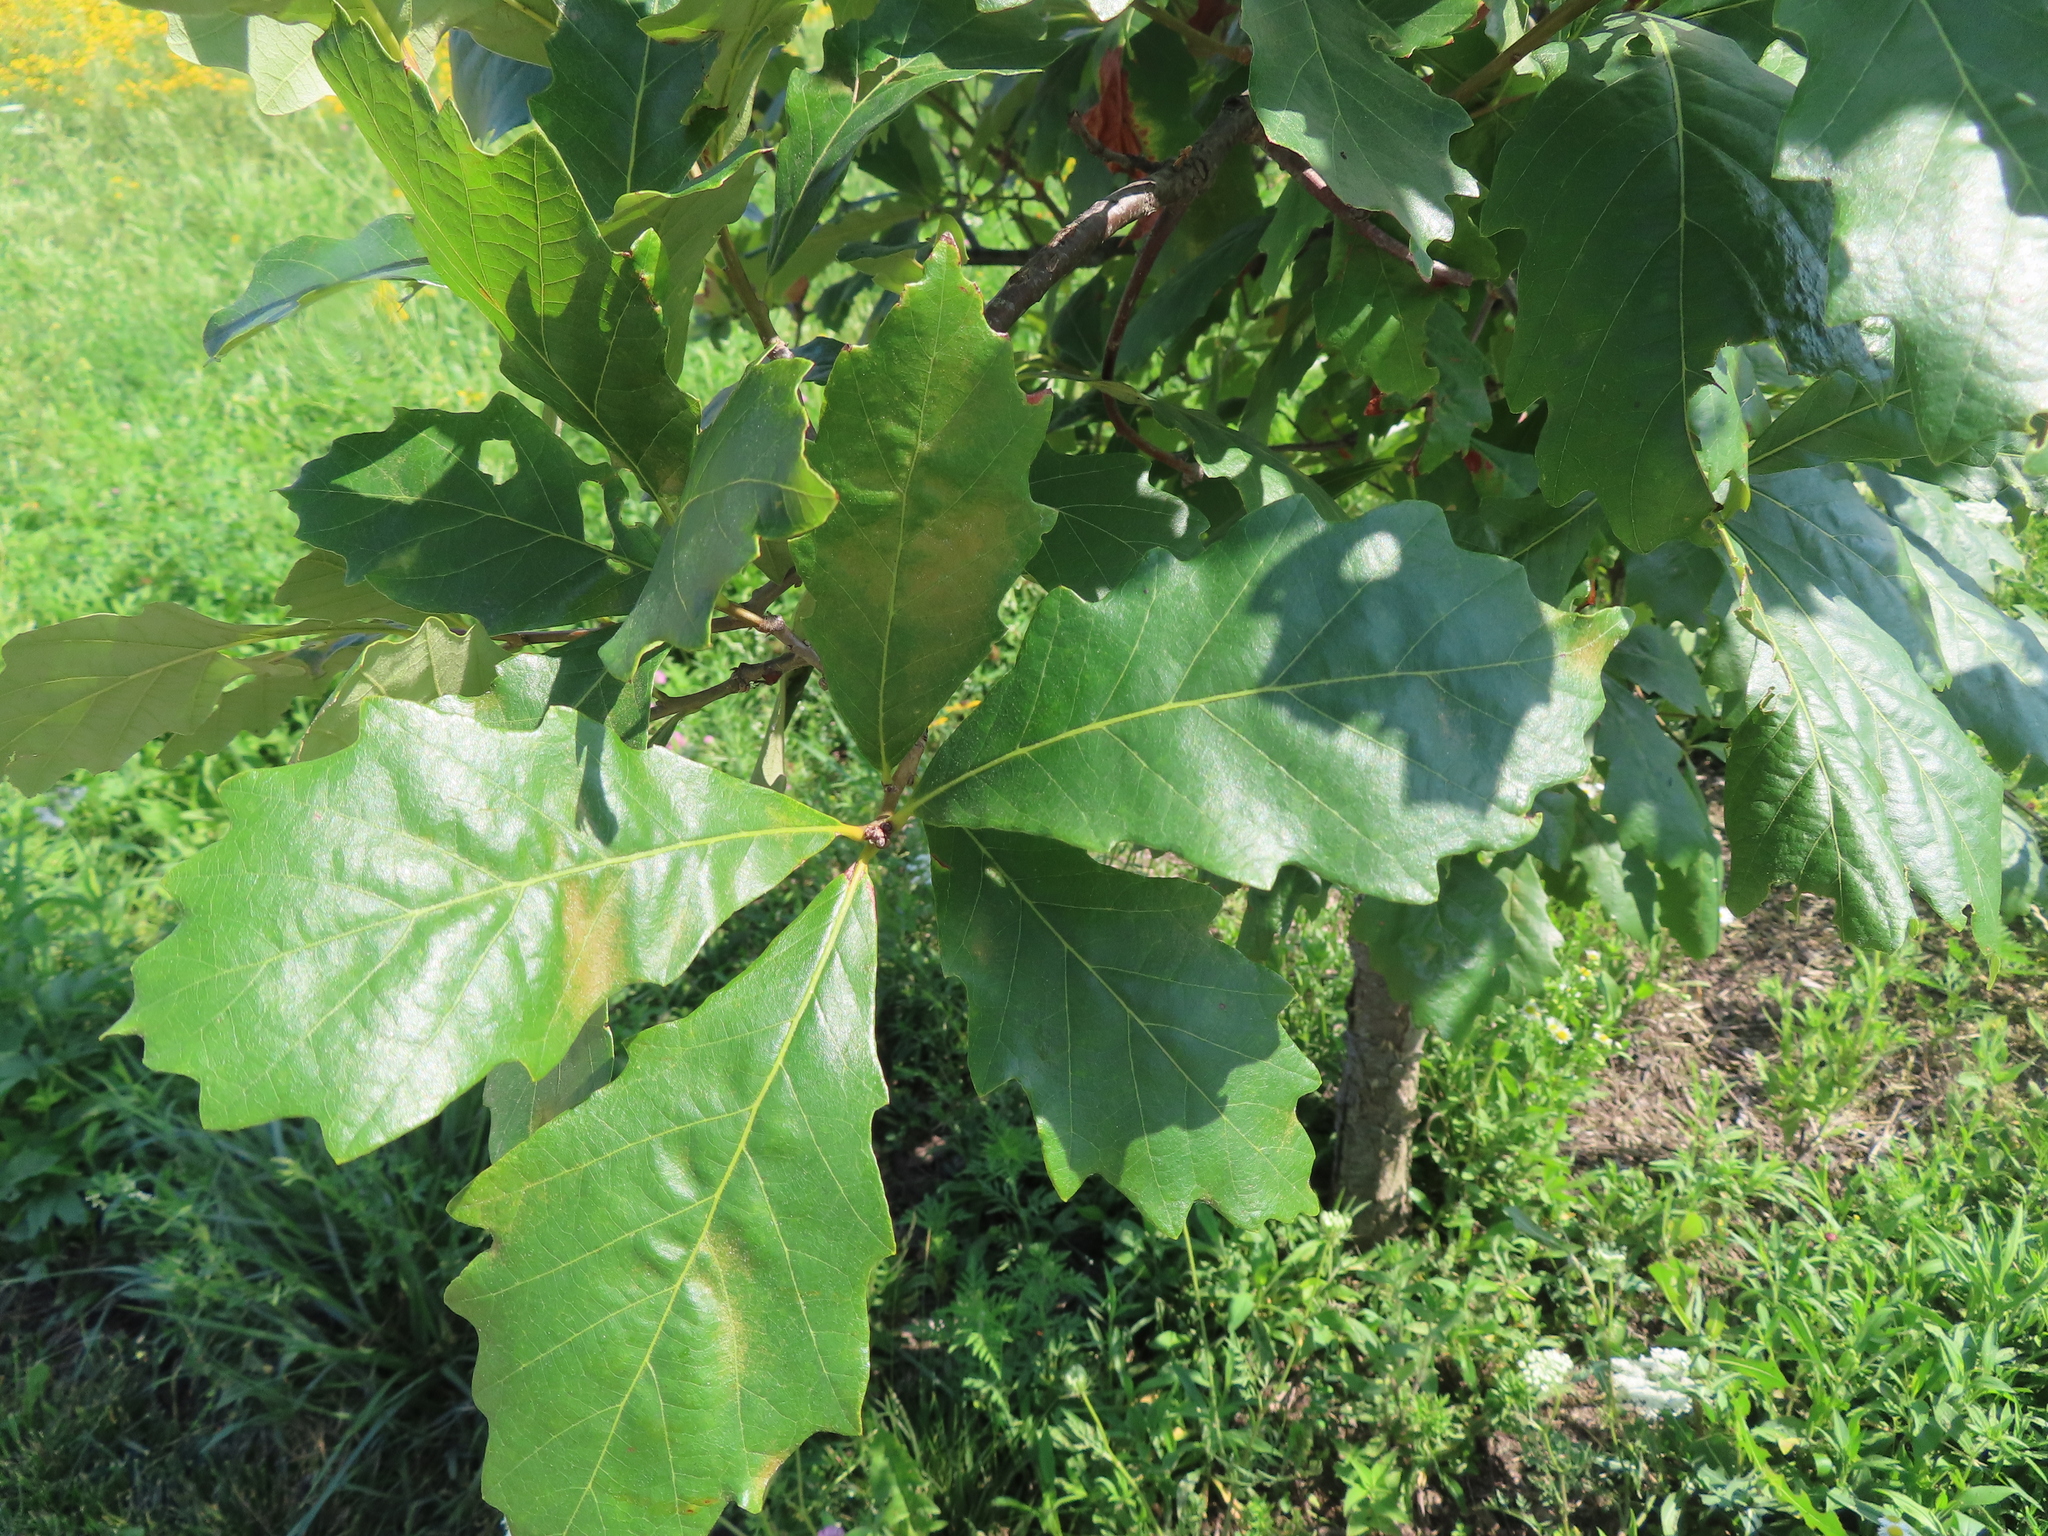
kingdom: Plantae
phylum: Tracheophyta
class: Magnoliopsida
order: Fagales
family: Fagaceae
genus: Quercus
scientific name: Quercus bicolor
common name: Swamp white oak
